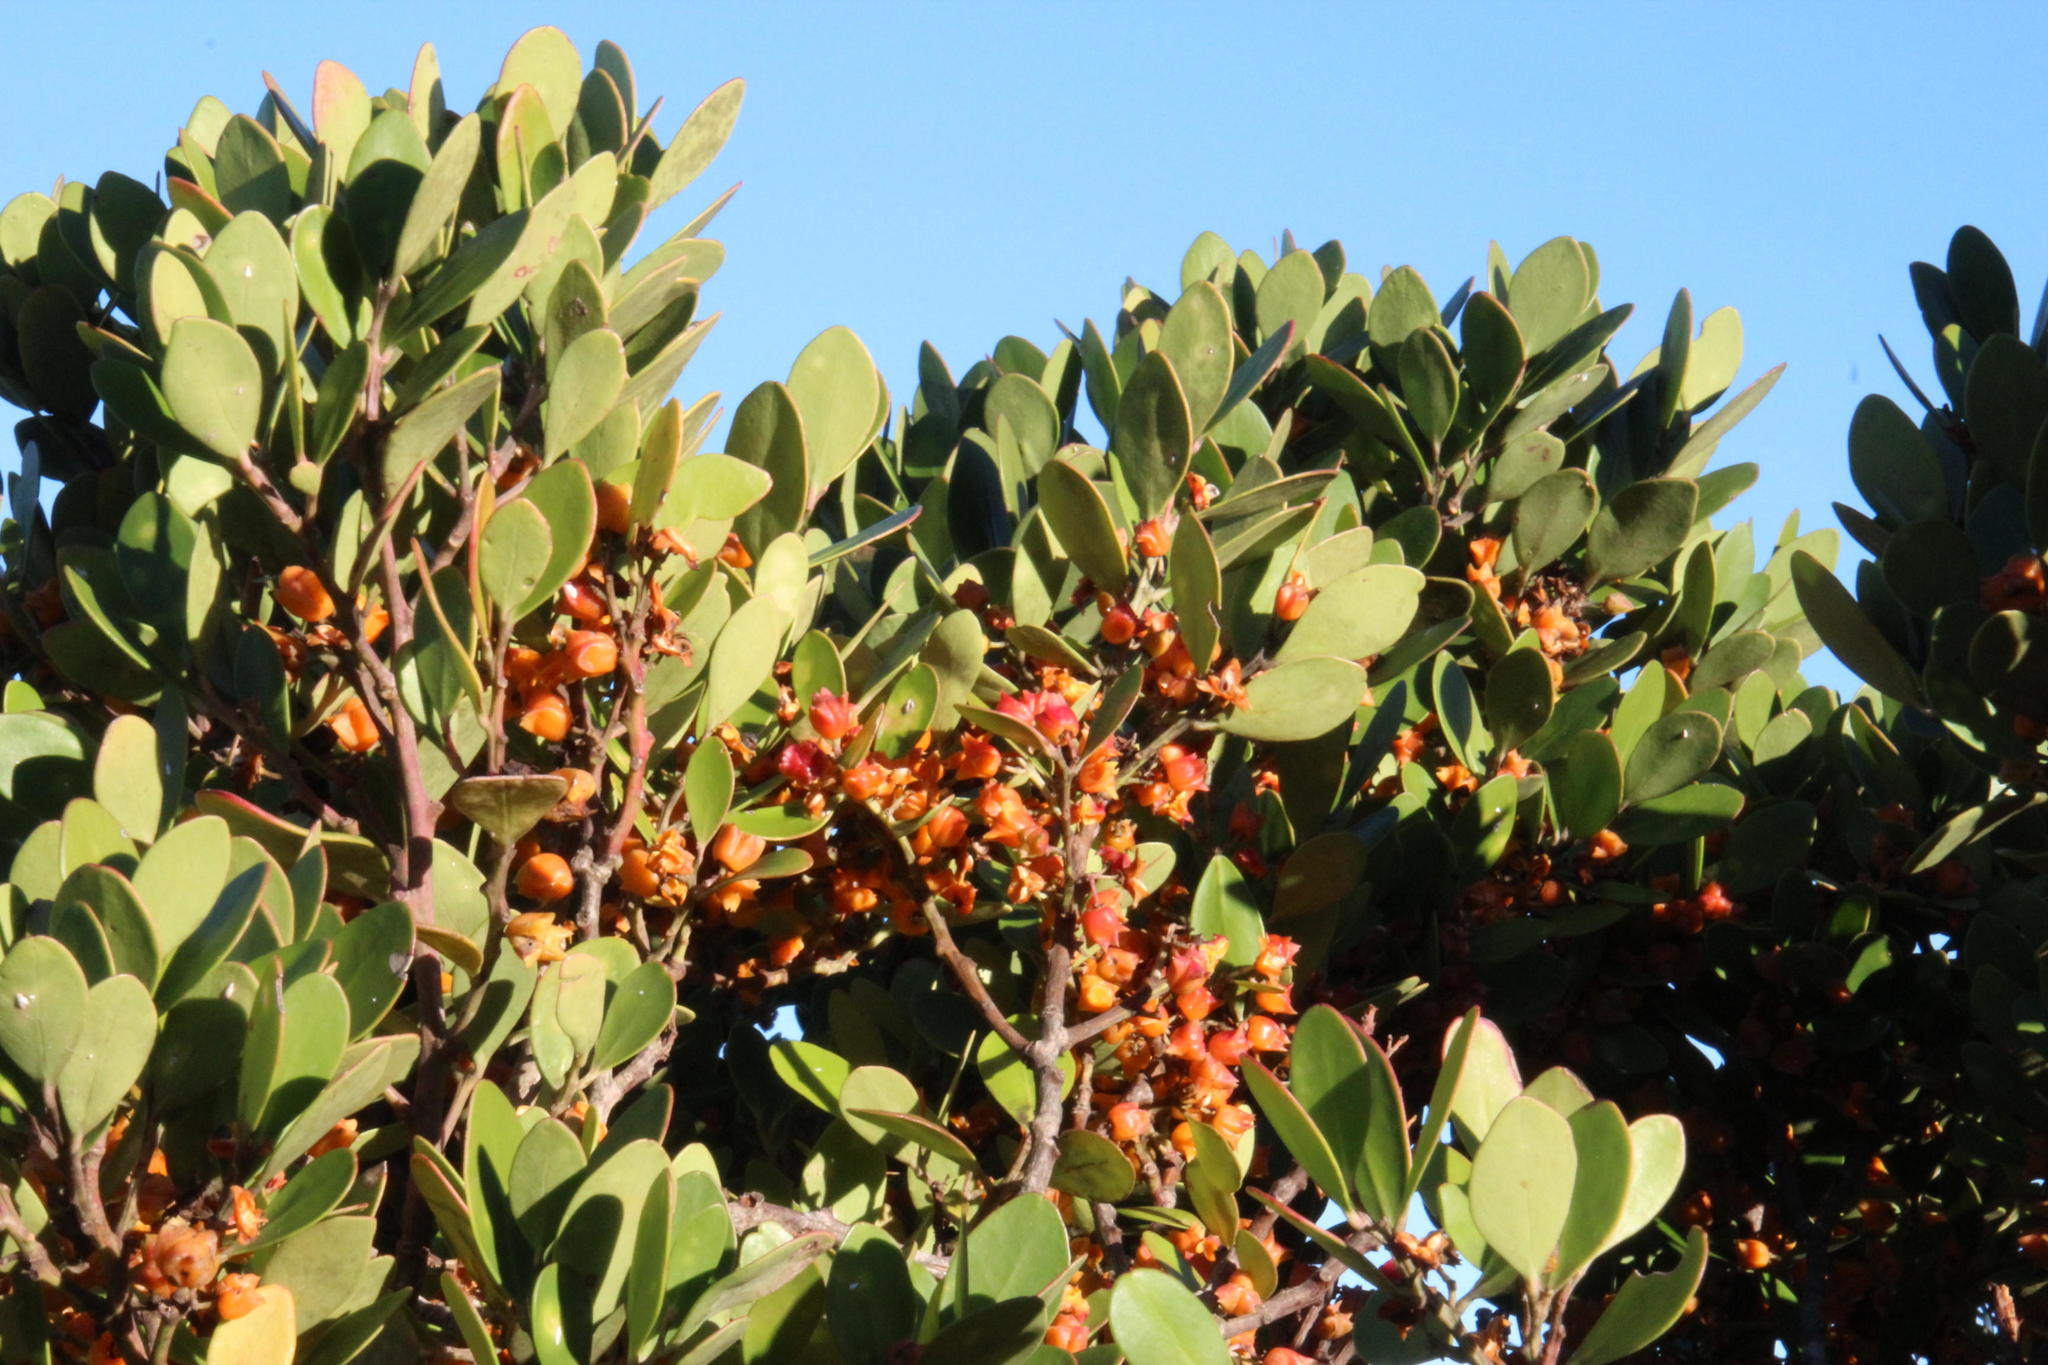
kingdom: Plantae
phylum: Tracheophyta
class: Magnoliopsida
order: Celastrales
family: Celastraceae
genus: Pterocelastrus
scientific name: Pterocelastrus tricuspidatus
